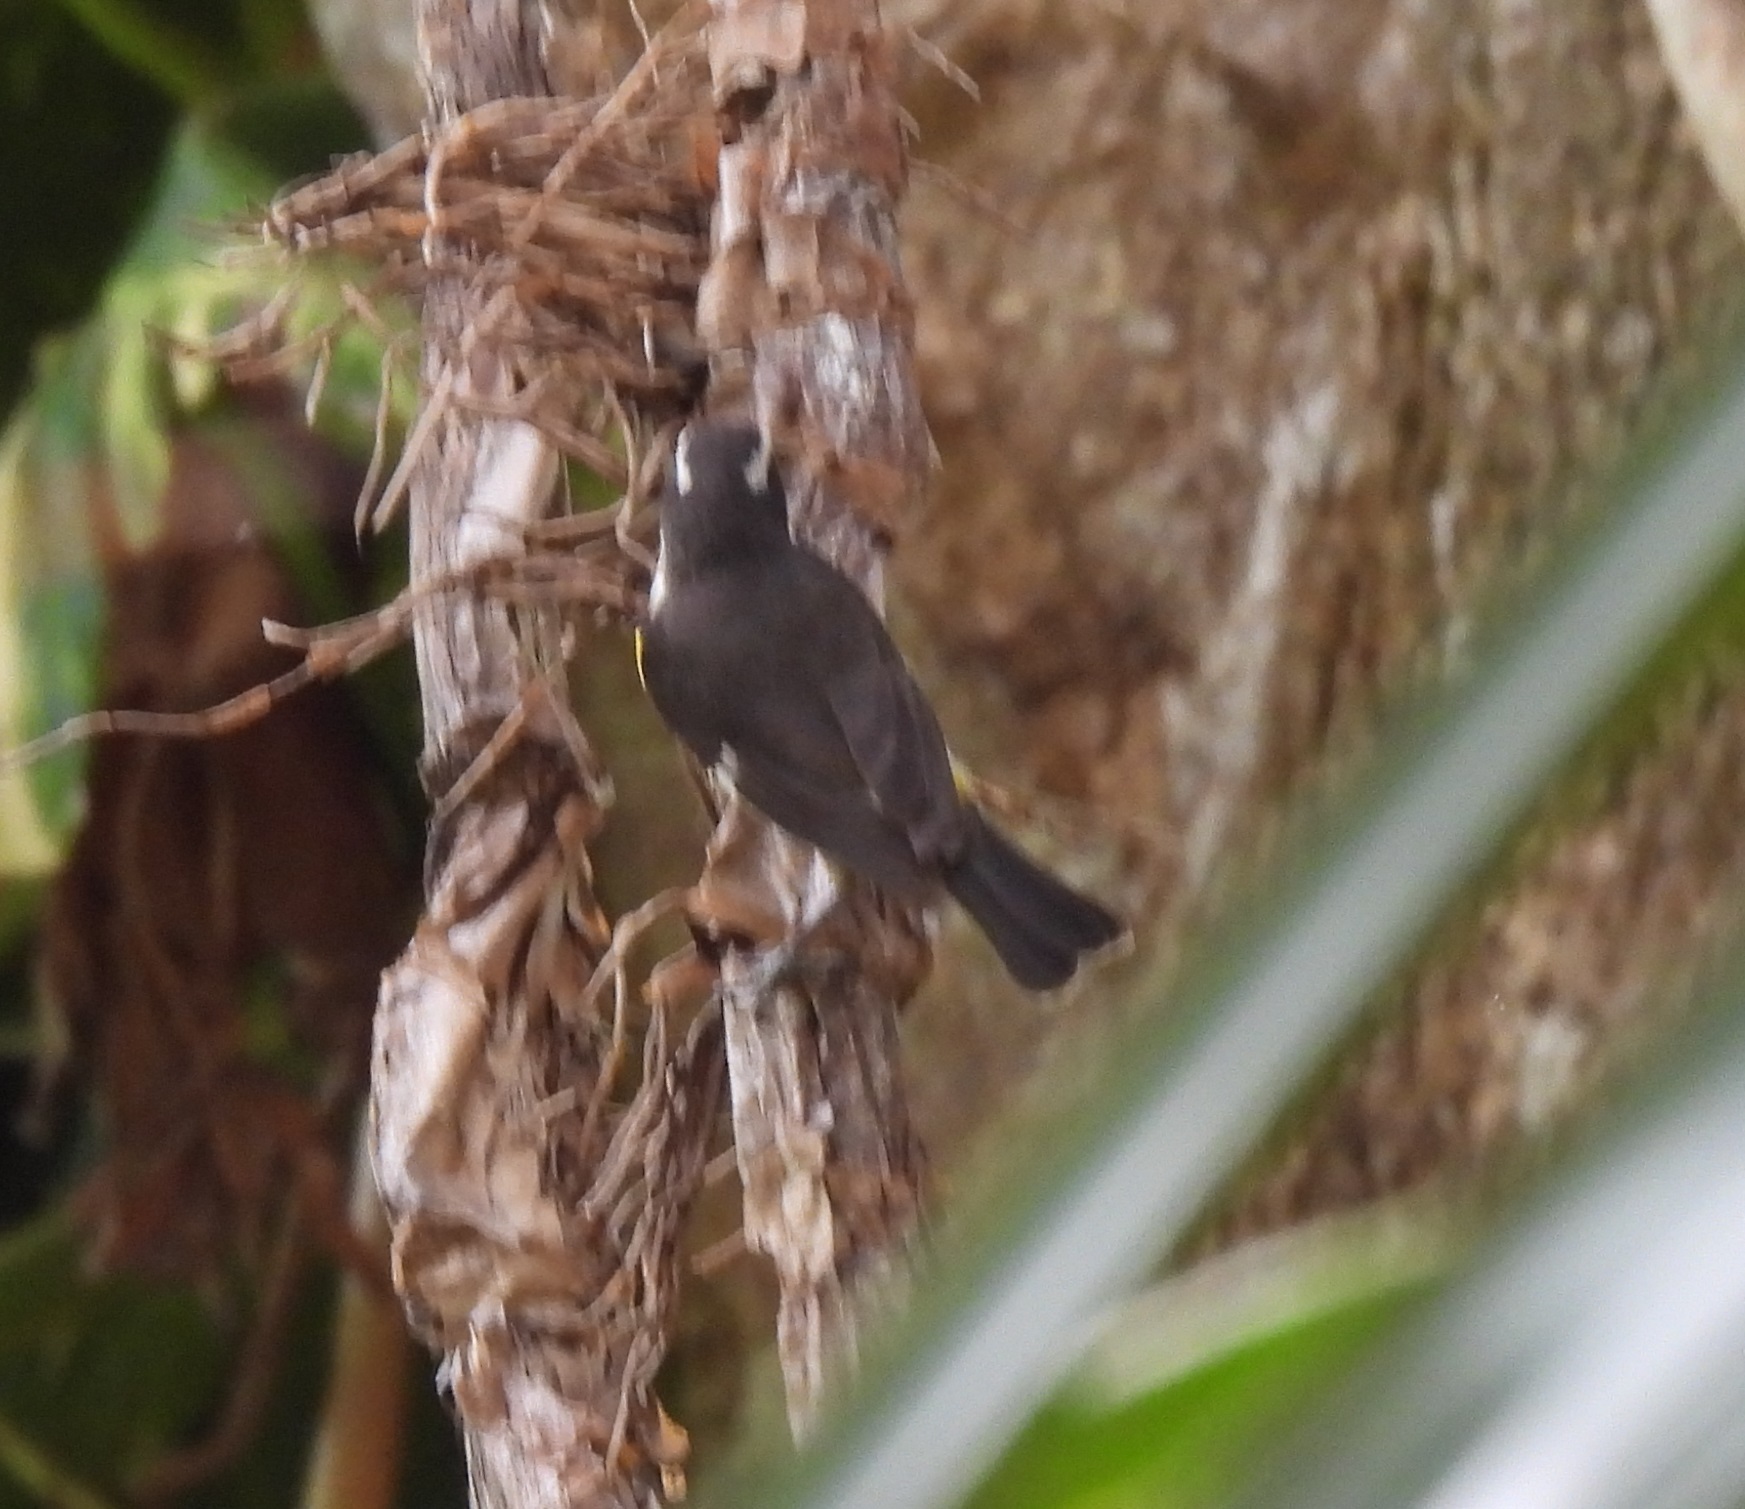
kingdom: Animalia
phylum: Chordata
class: Aves
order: Passeriformes
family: Thraupidae
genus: Coereba
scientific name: Coereba flaveola
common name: Bananaquit
